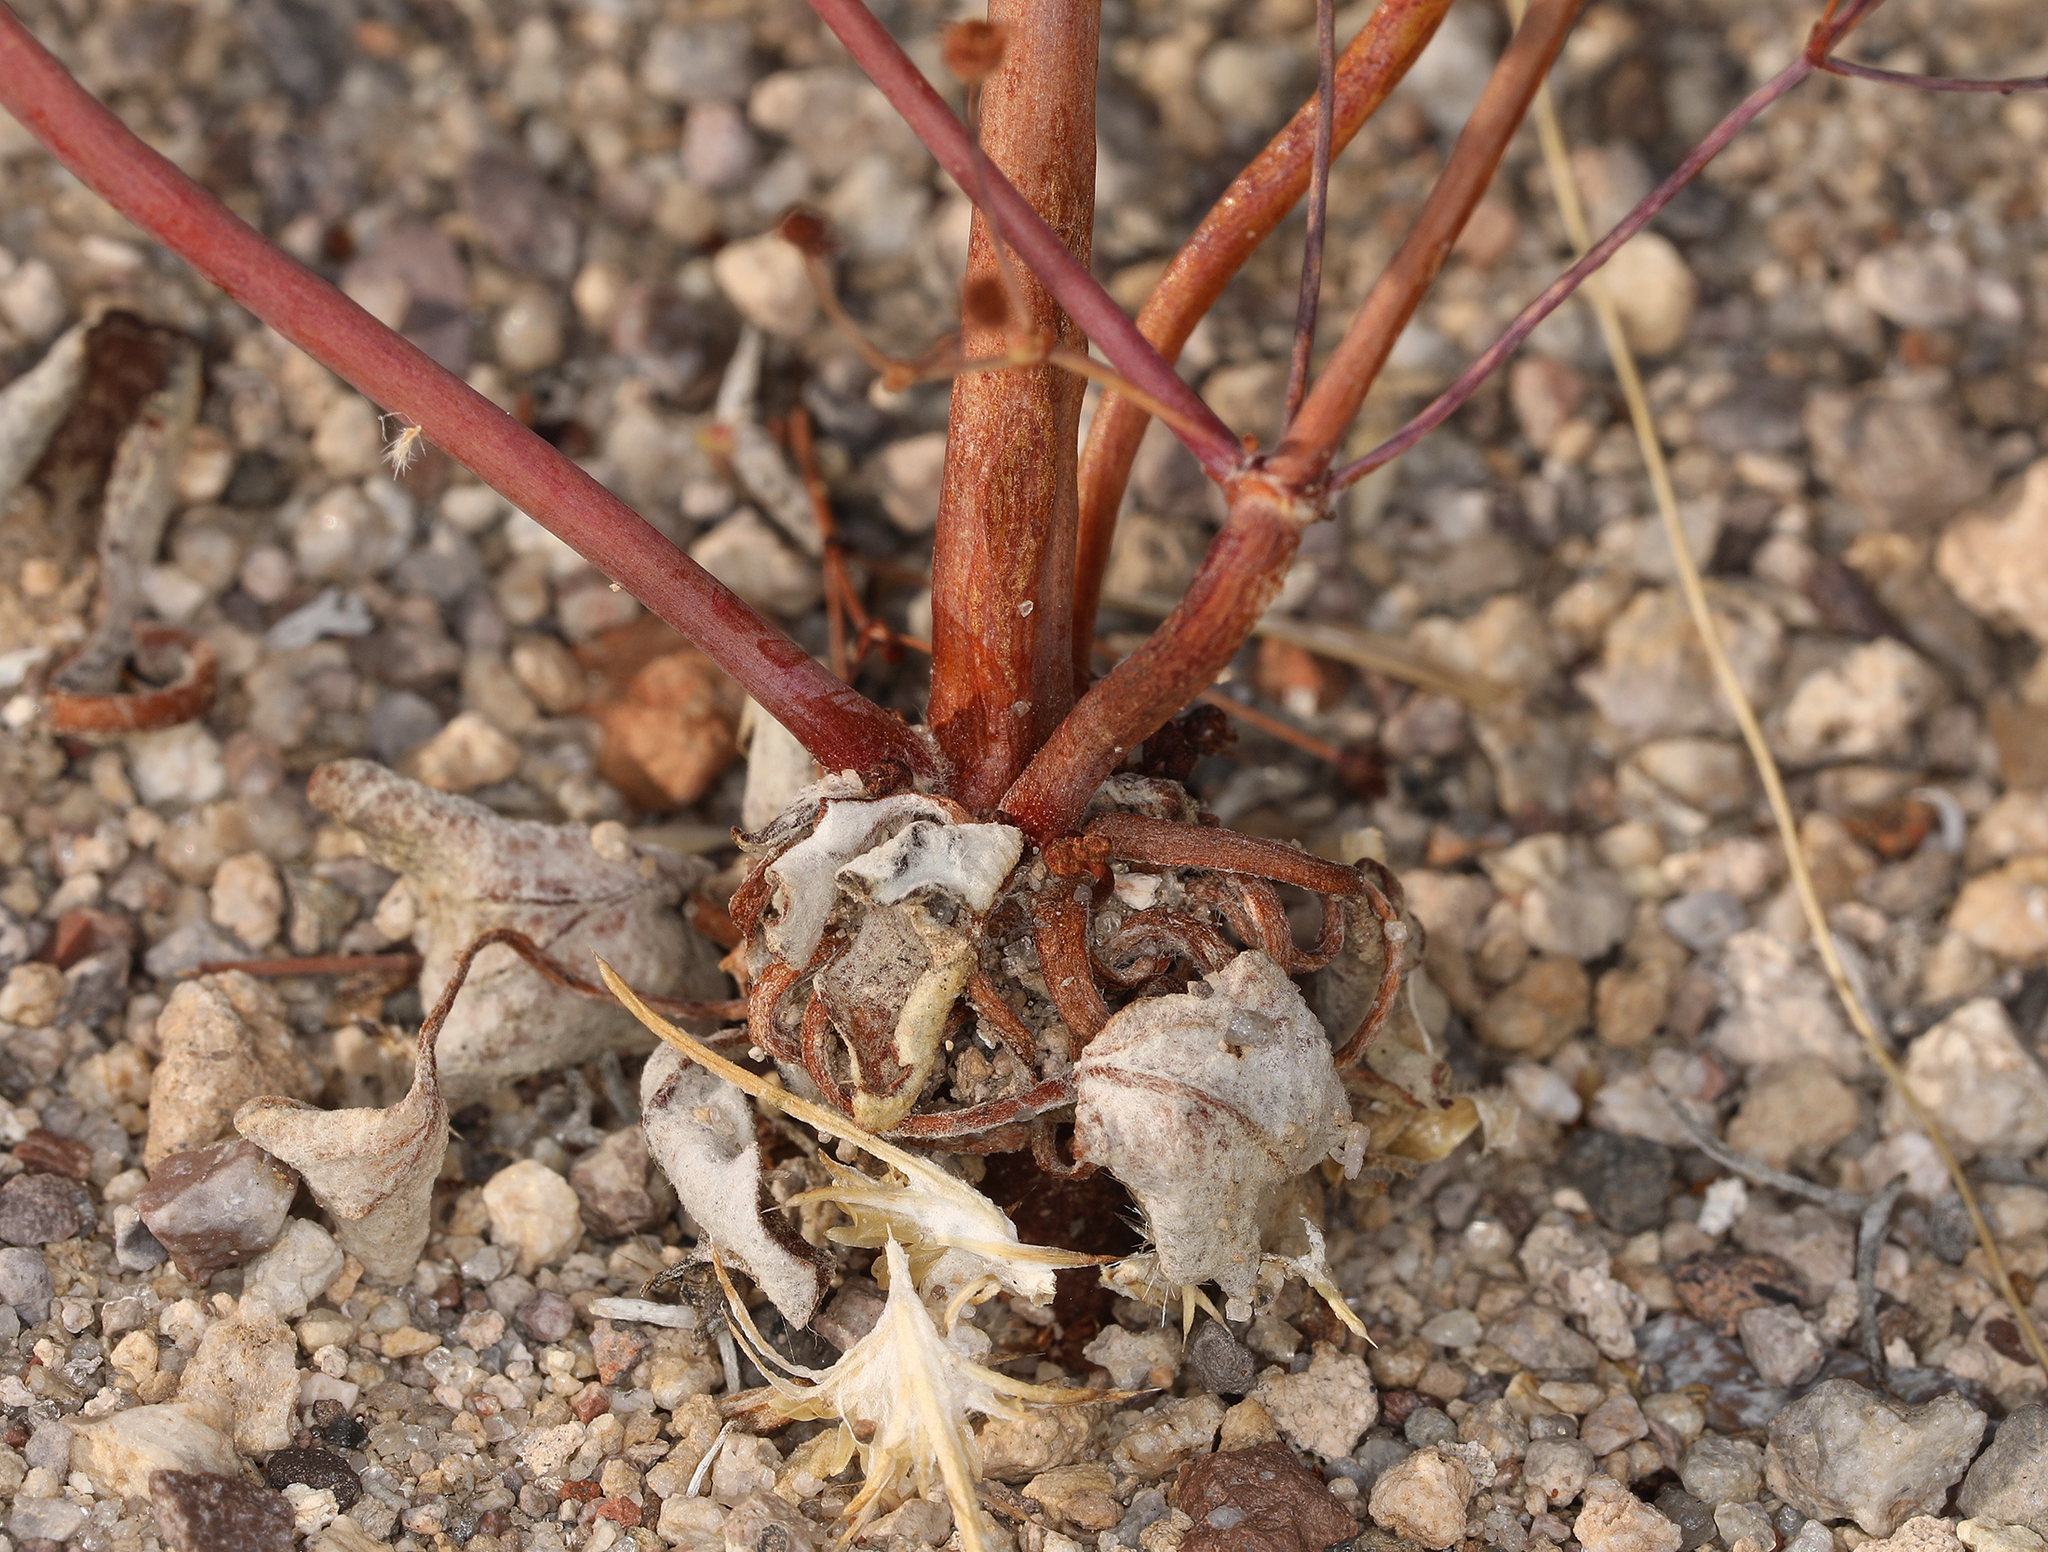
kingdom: Plantae
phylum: Tracheophyta
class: Magnoliopsida
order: Caryophyllales
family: Polygonaceae
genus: Eriogonum
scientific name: Eriogonum pusillum
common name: Yellow turbans
